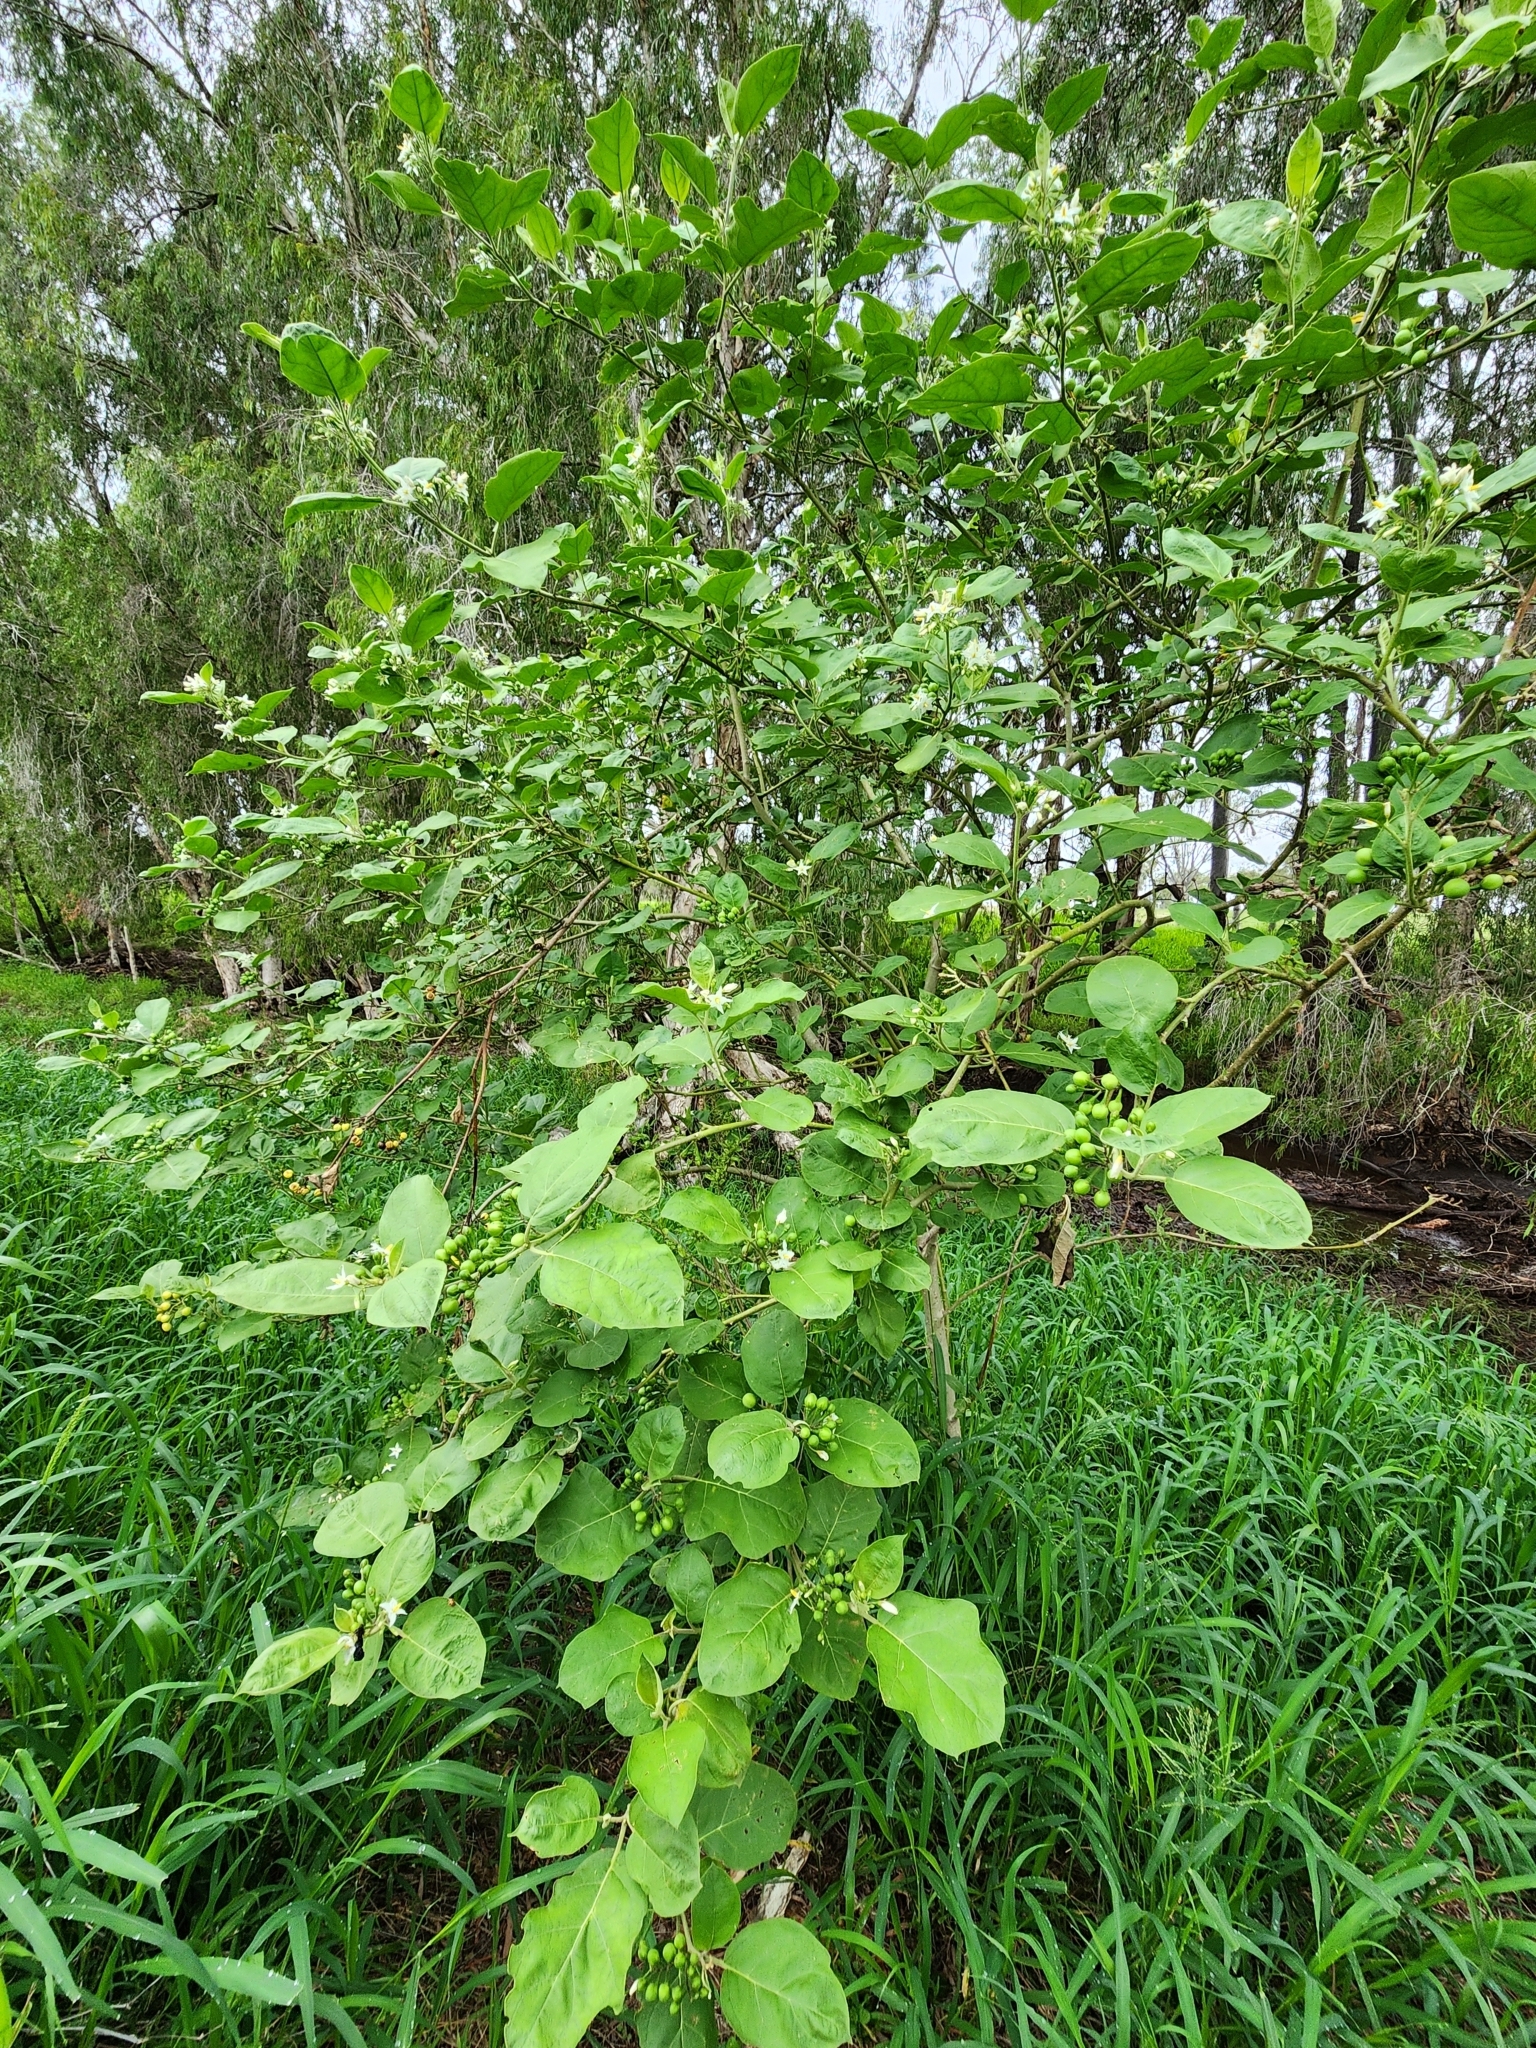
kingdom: Plantae
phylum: Tracheophyta
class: Magnoliopsida
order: Solanales
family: Solanaceae
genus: Solanum
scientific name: Solanum torvum
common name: Turkey berry
